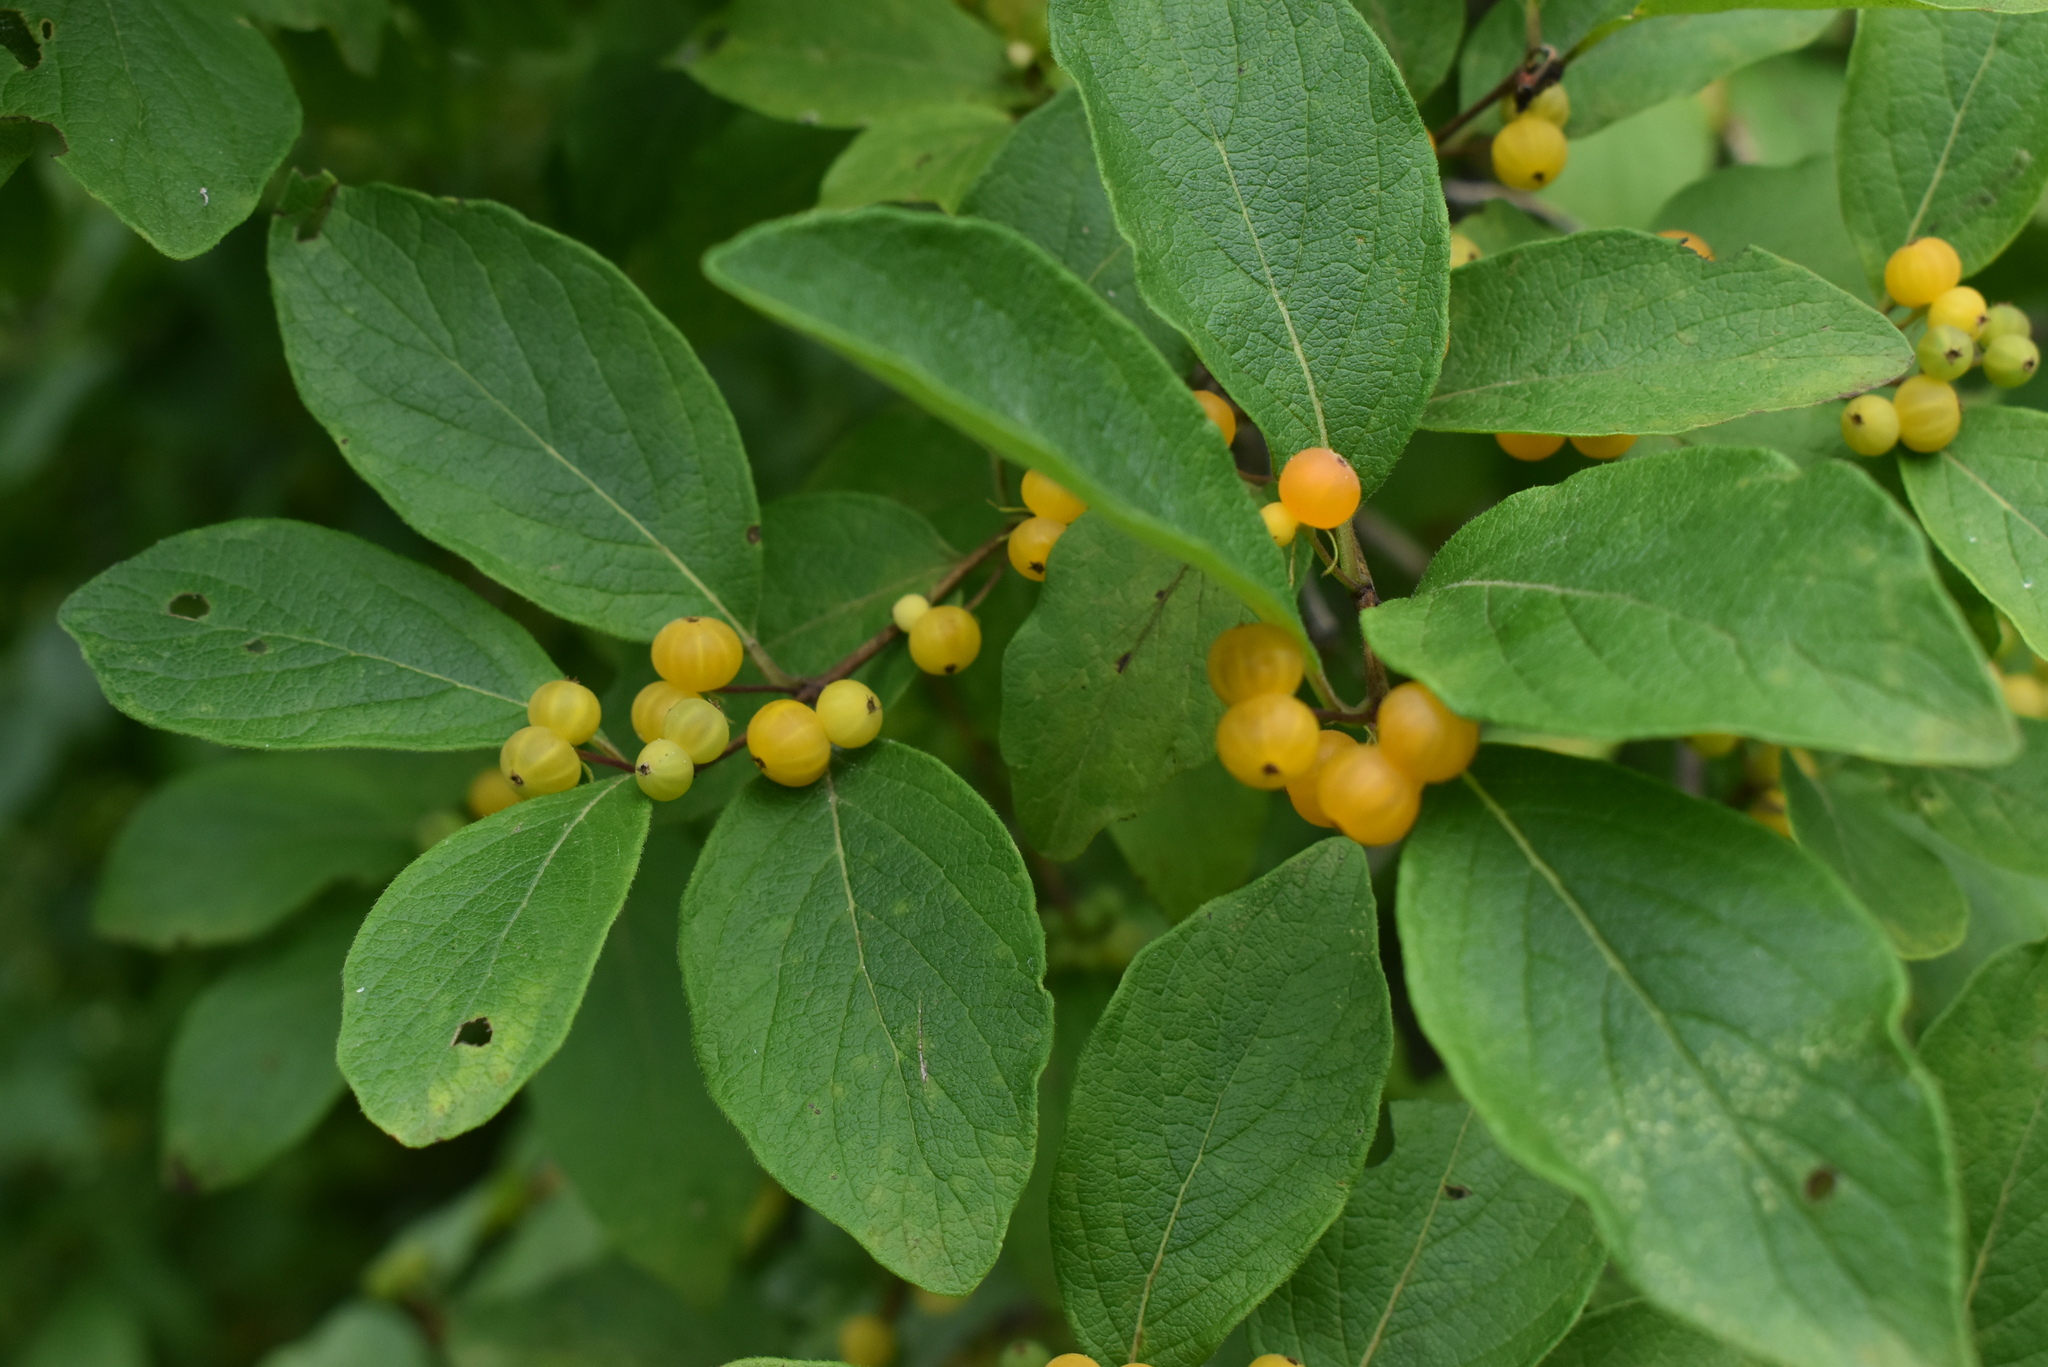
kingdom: Plantae
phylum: Tracheophyta
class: Magnoliopsida
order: Dipsacales
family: Caprifoliaceae
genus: Lonicera
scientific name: Lonicera ruprechtiana
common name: Manchurian honeysuckle
